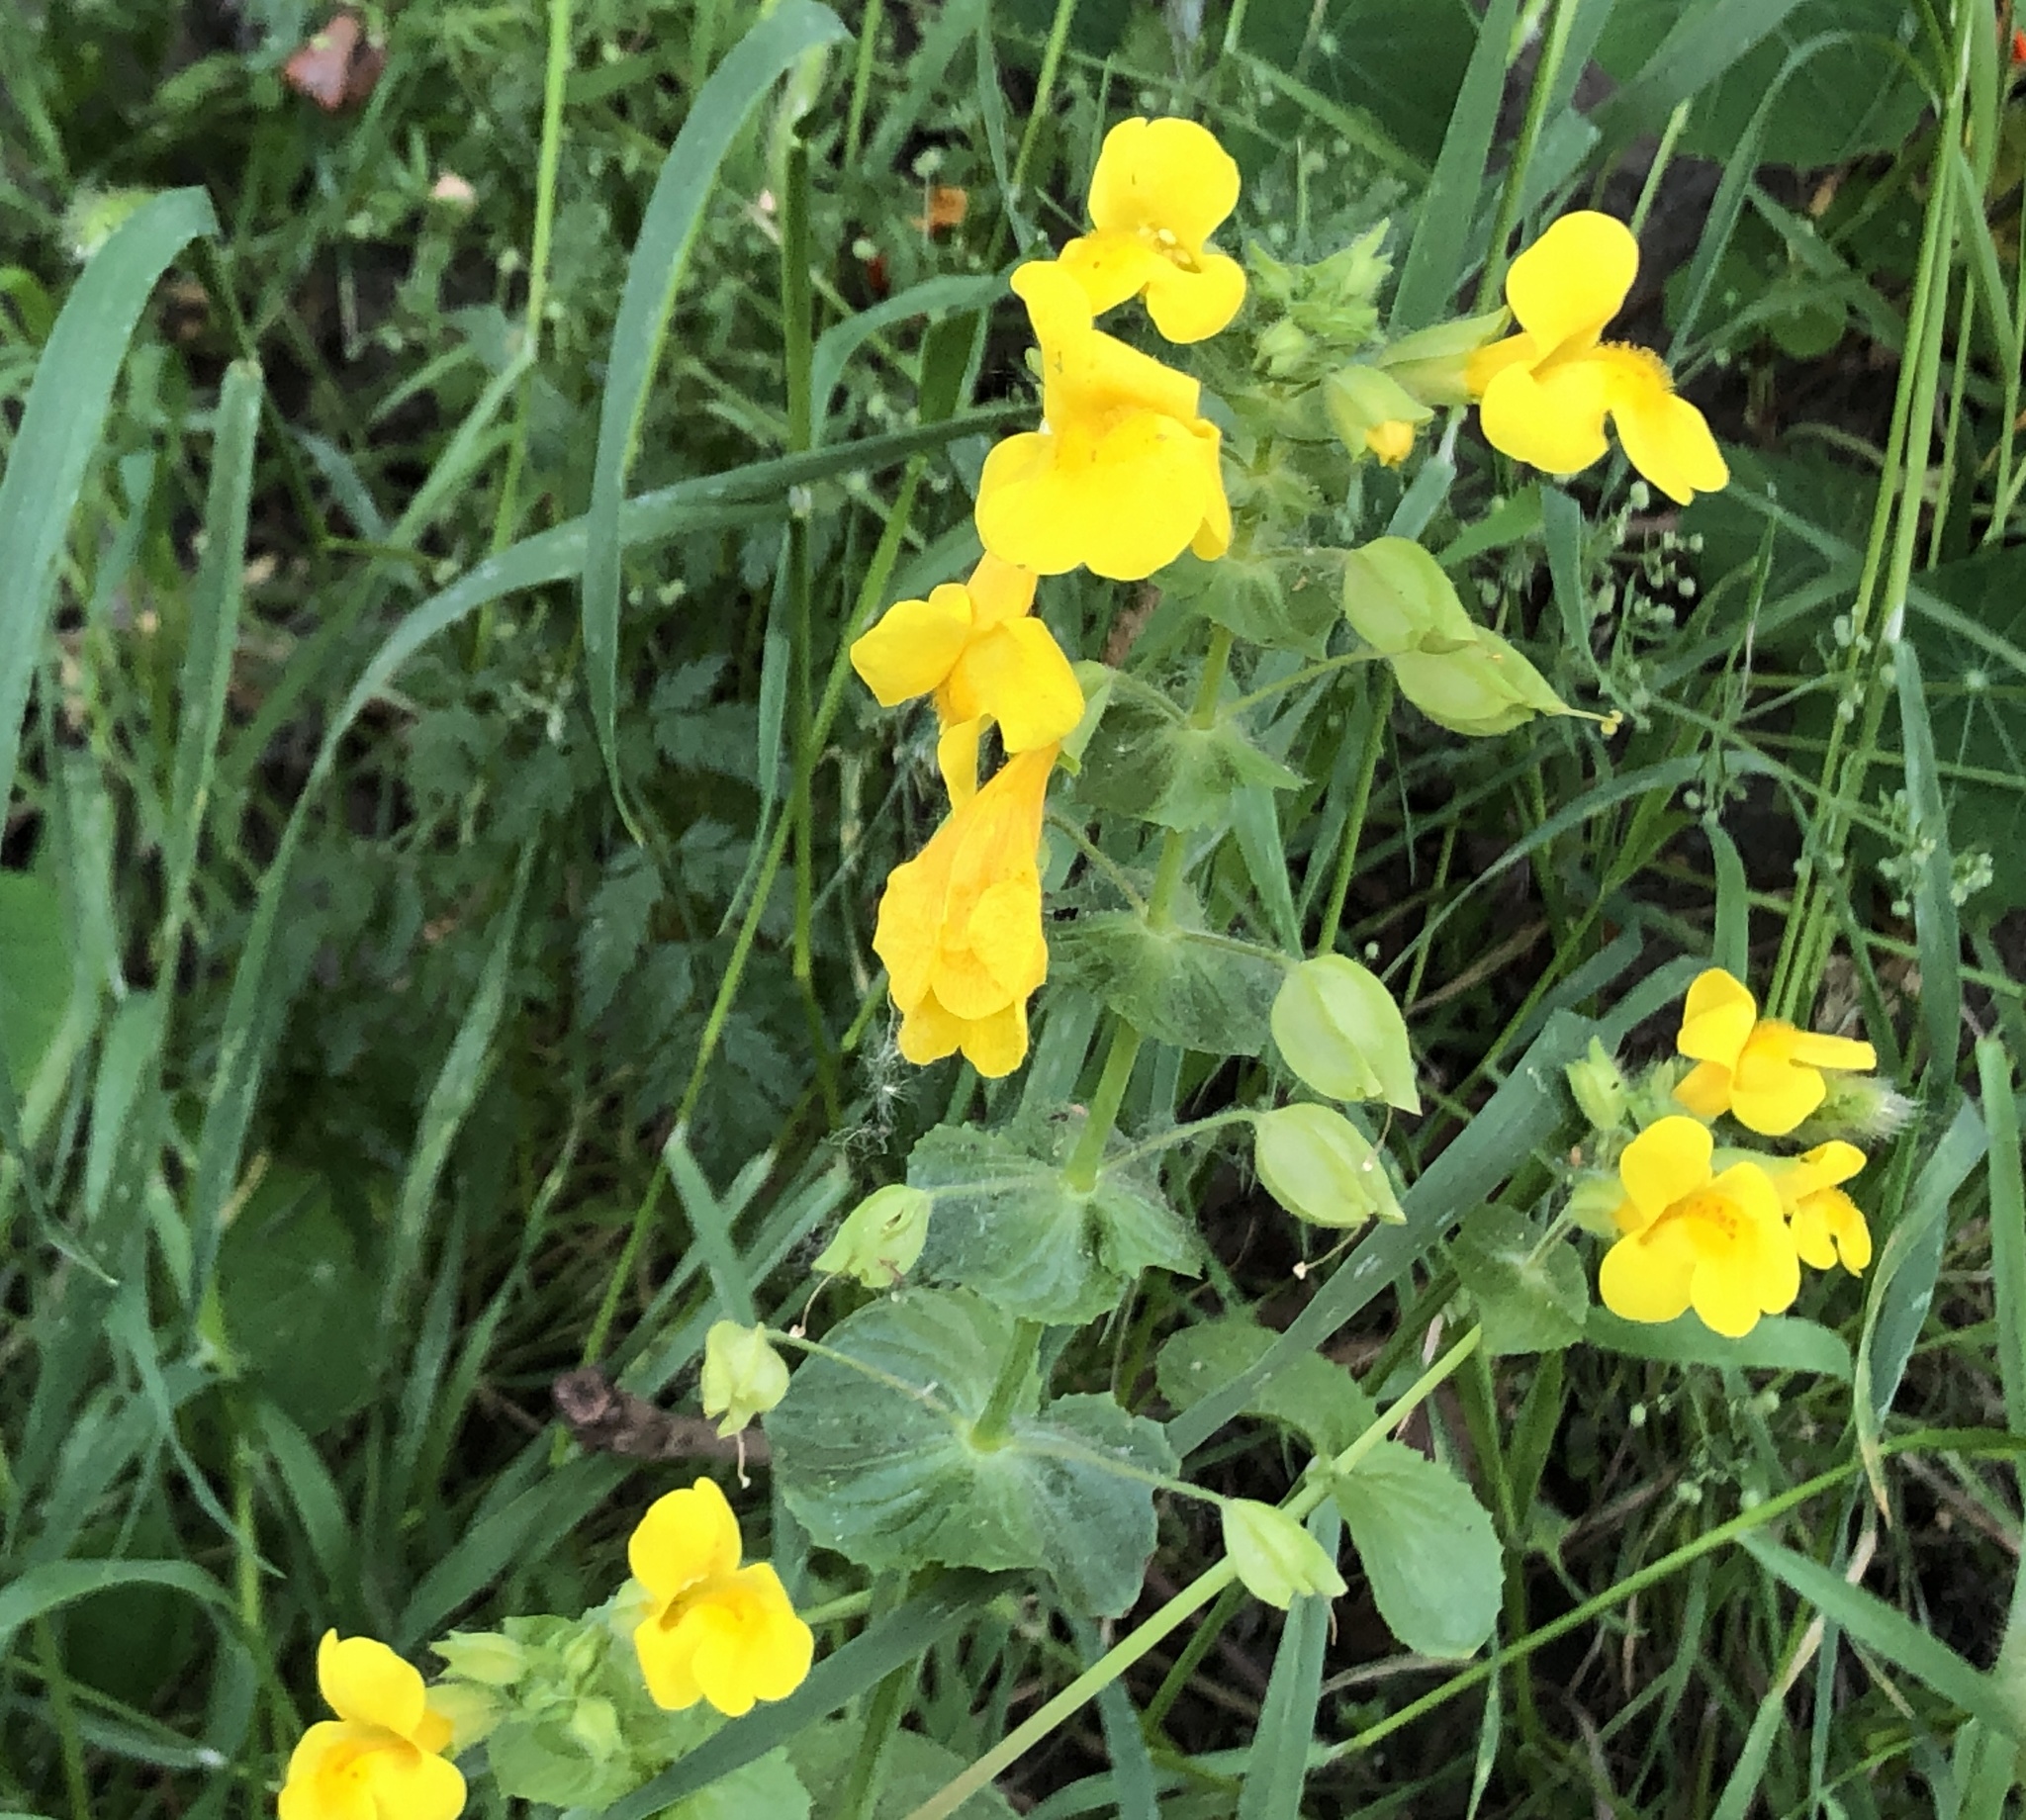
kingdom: Plantae
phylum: Tracheophyta
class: Magnoliopsida
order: Lamiales
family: Phrymaceae
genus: Erythranthe
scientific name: Erythranthe guttata
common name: Monkeyflower
